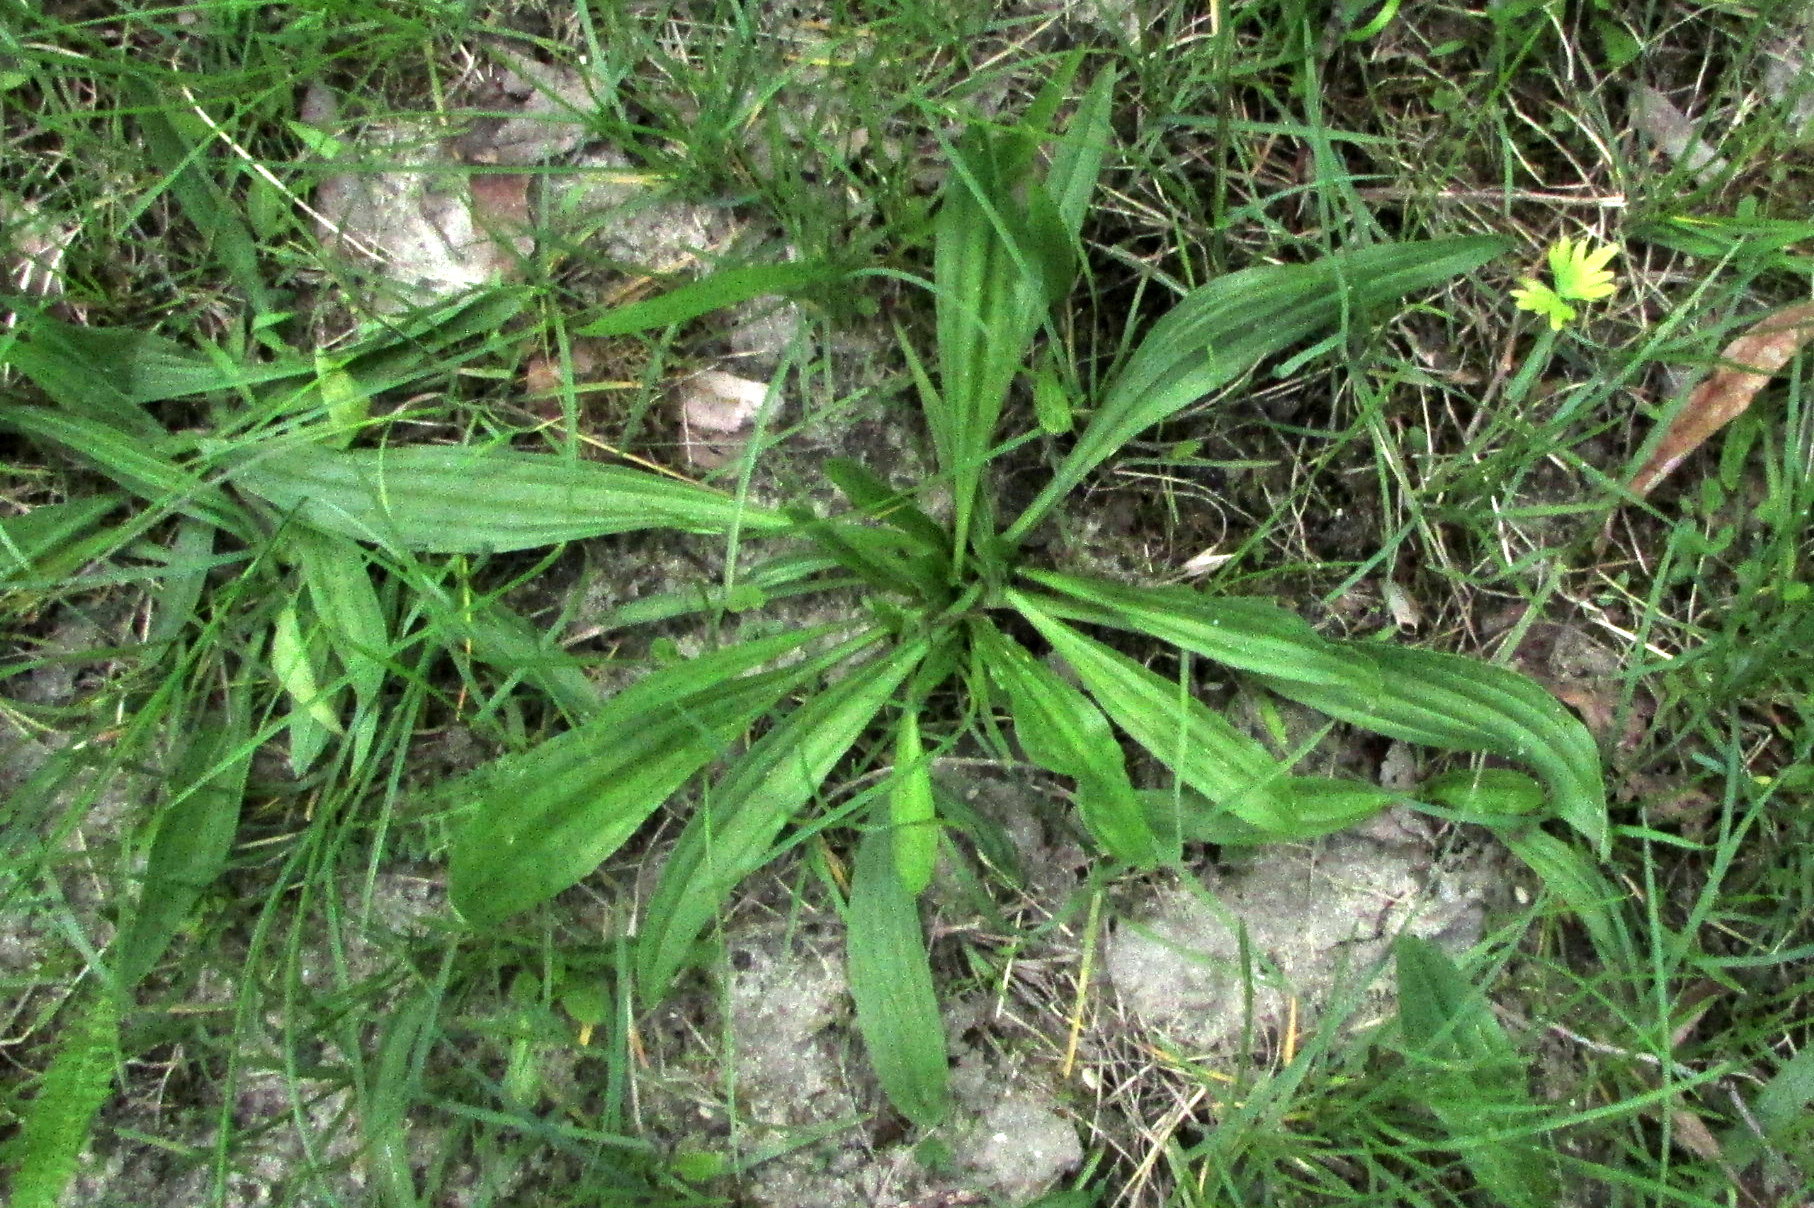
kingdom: Plantae
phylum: Tracheophyta
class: Magnoliopsida
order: Lamiales
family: Plantaginaceae
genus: Plantago
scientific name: Plantago lanceolata
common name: Ribwort plantain
